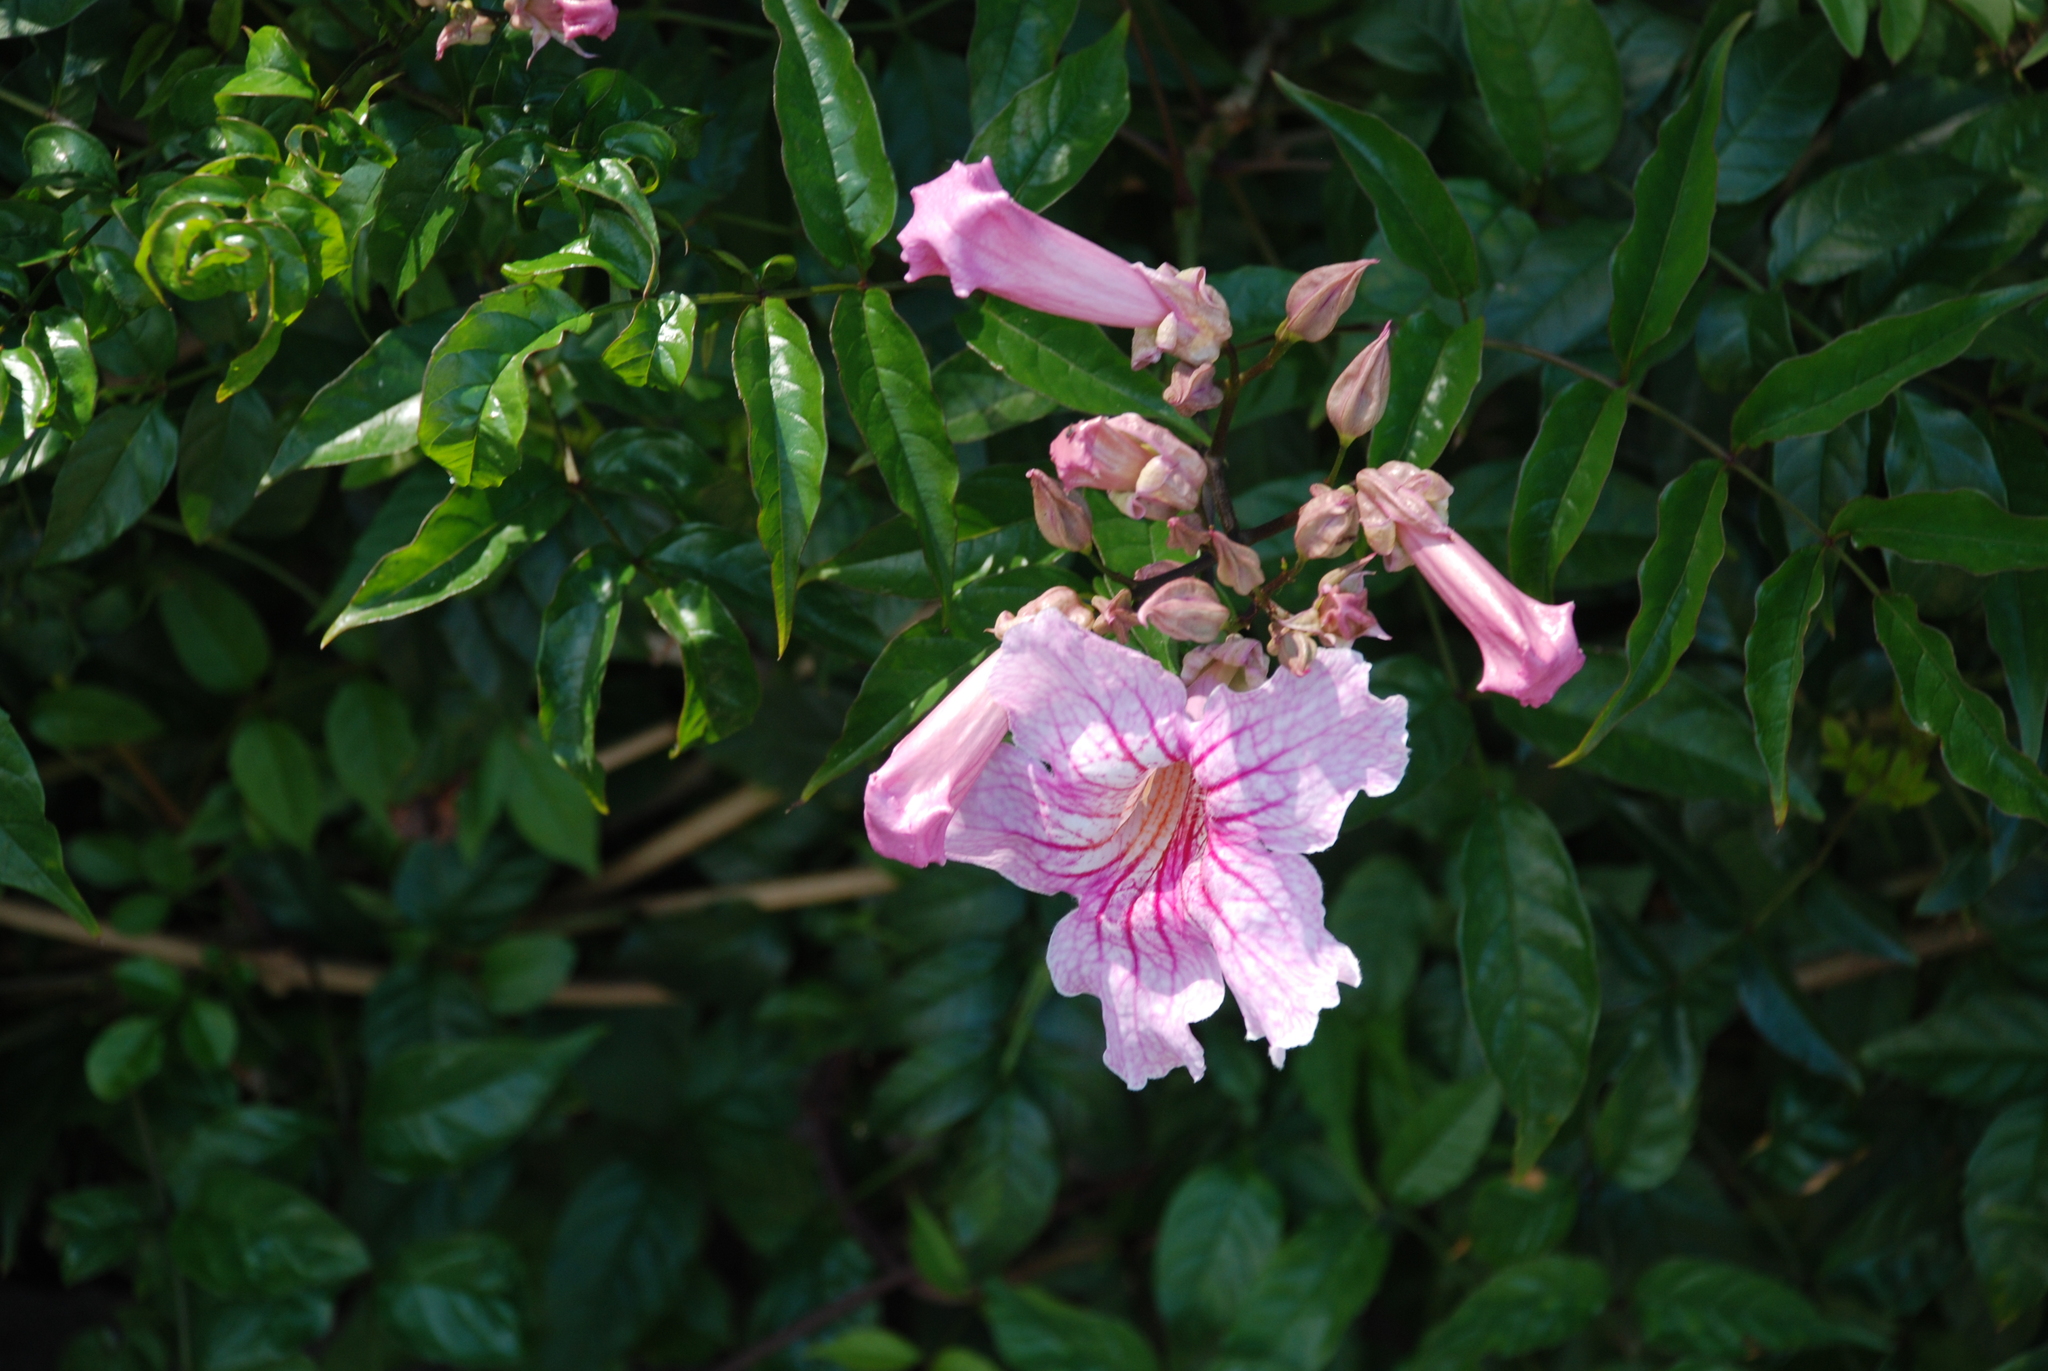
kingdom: Plantae
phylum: Tracheophyta
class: Magnoliopsida
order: Lamiales
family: Bignoniaceae
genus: Podranea
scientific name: Podranea ricasoliana
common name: Zimbabwe creeper
